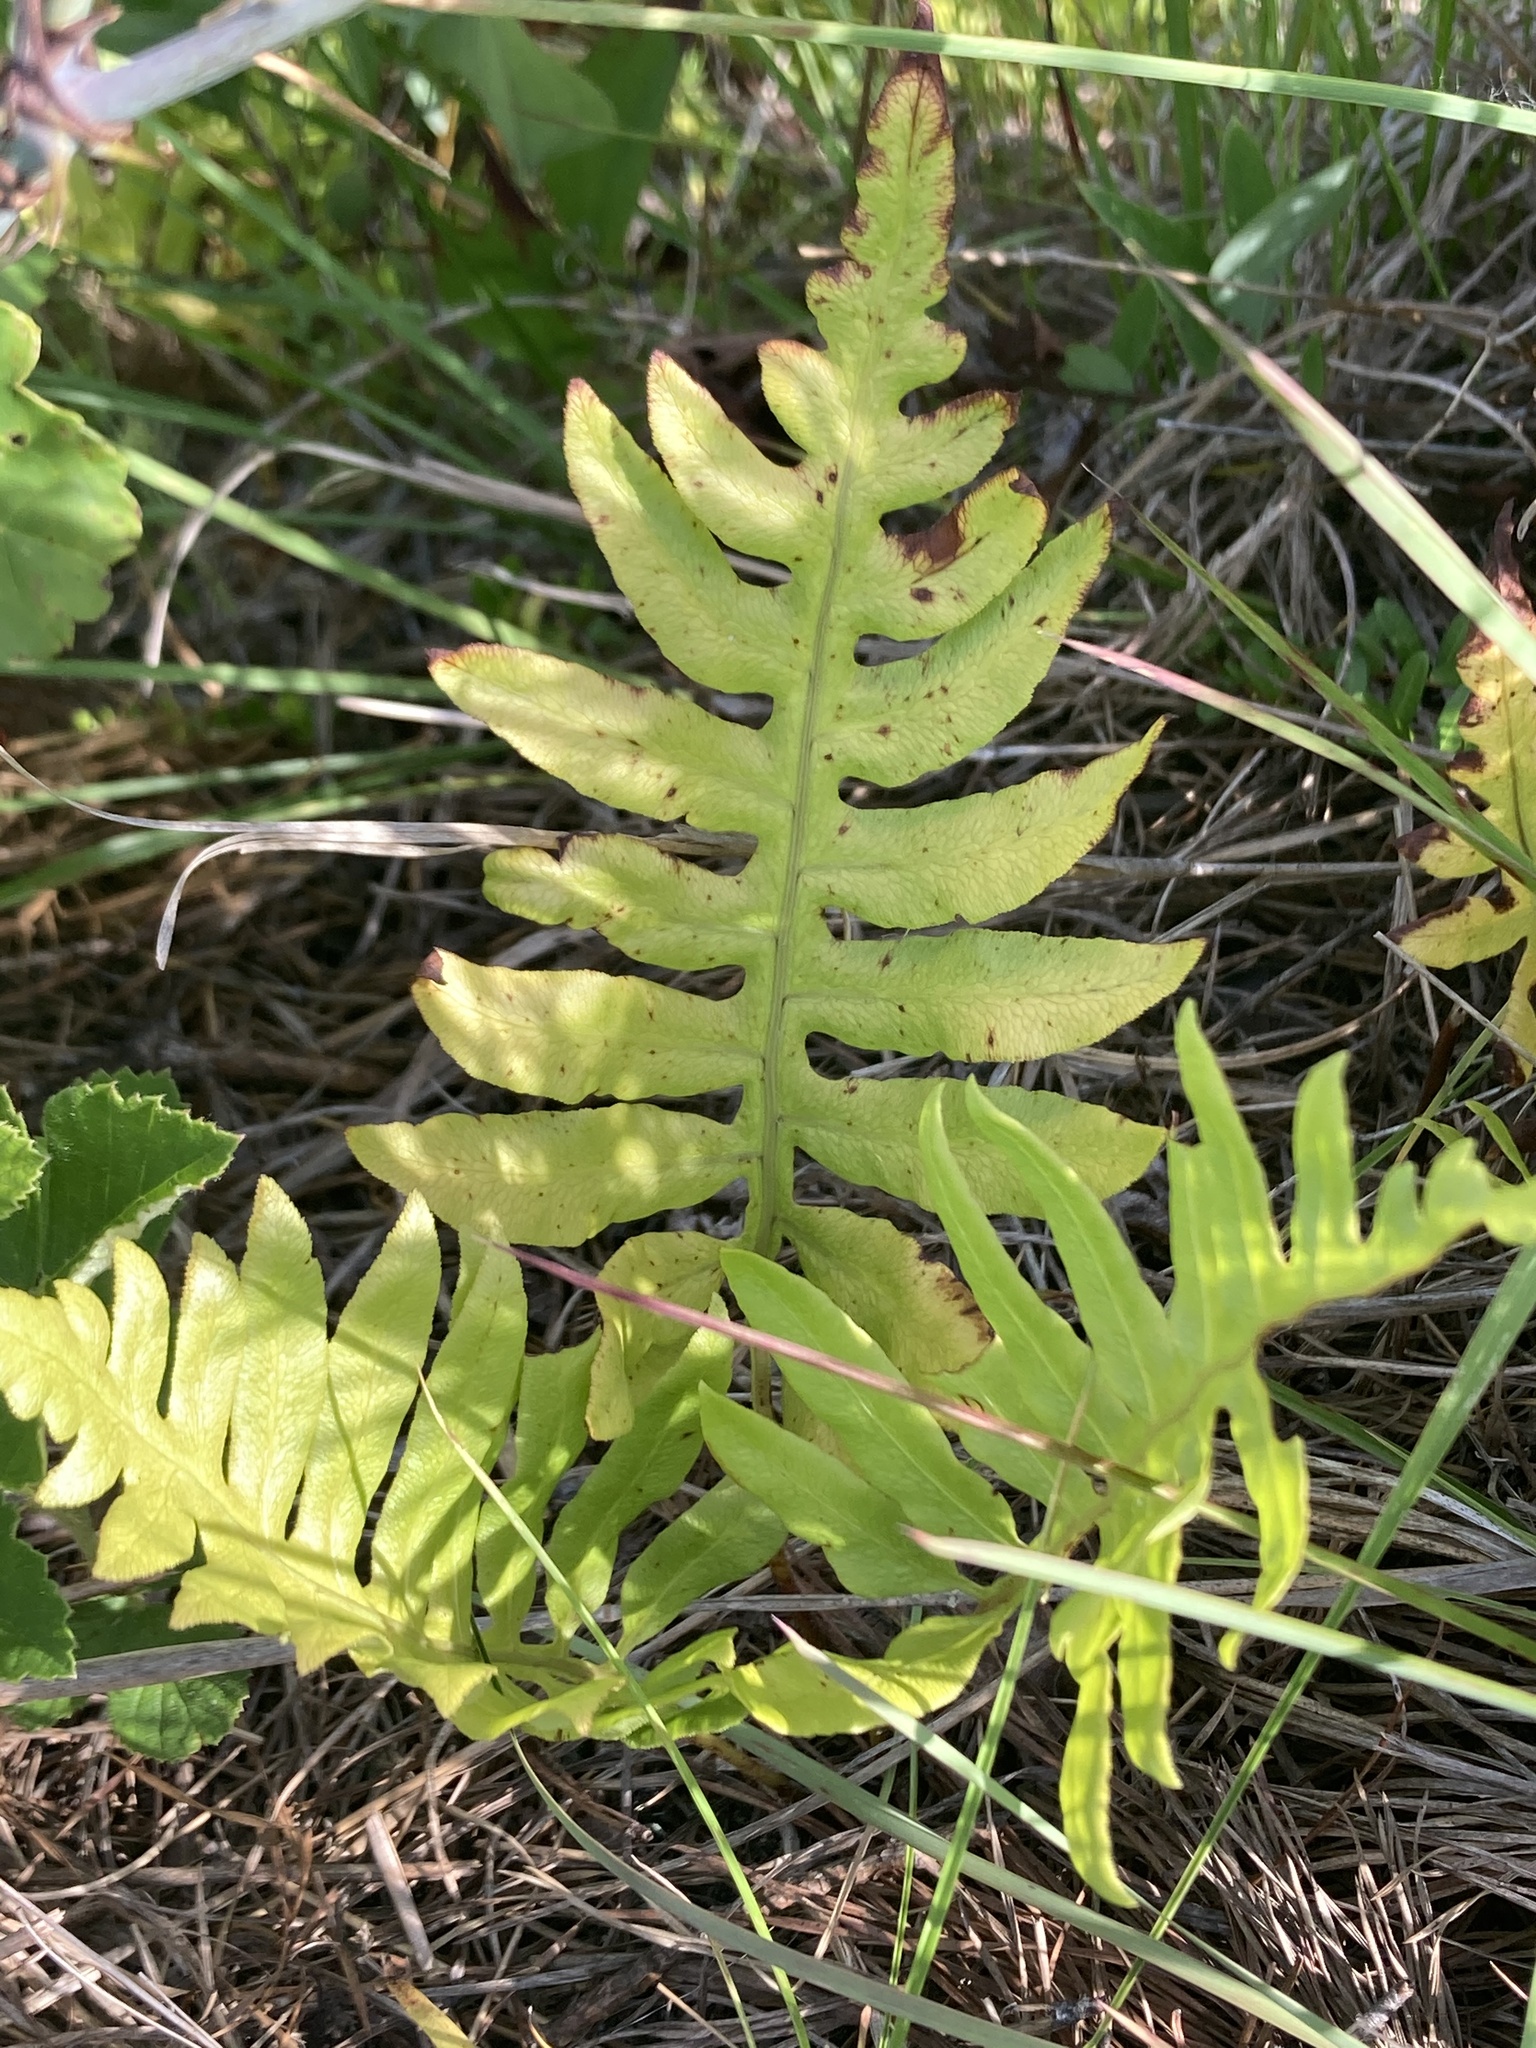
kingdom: Plantae
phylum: Tracheophyta
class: Polypodiopsida
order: Polypodiales
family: Blechnaceae
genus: Lorinseria
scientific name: Lorinseria areolata
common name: Dwarf chain fern
